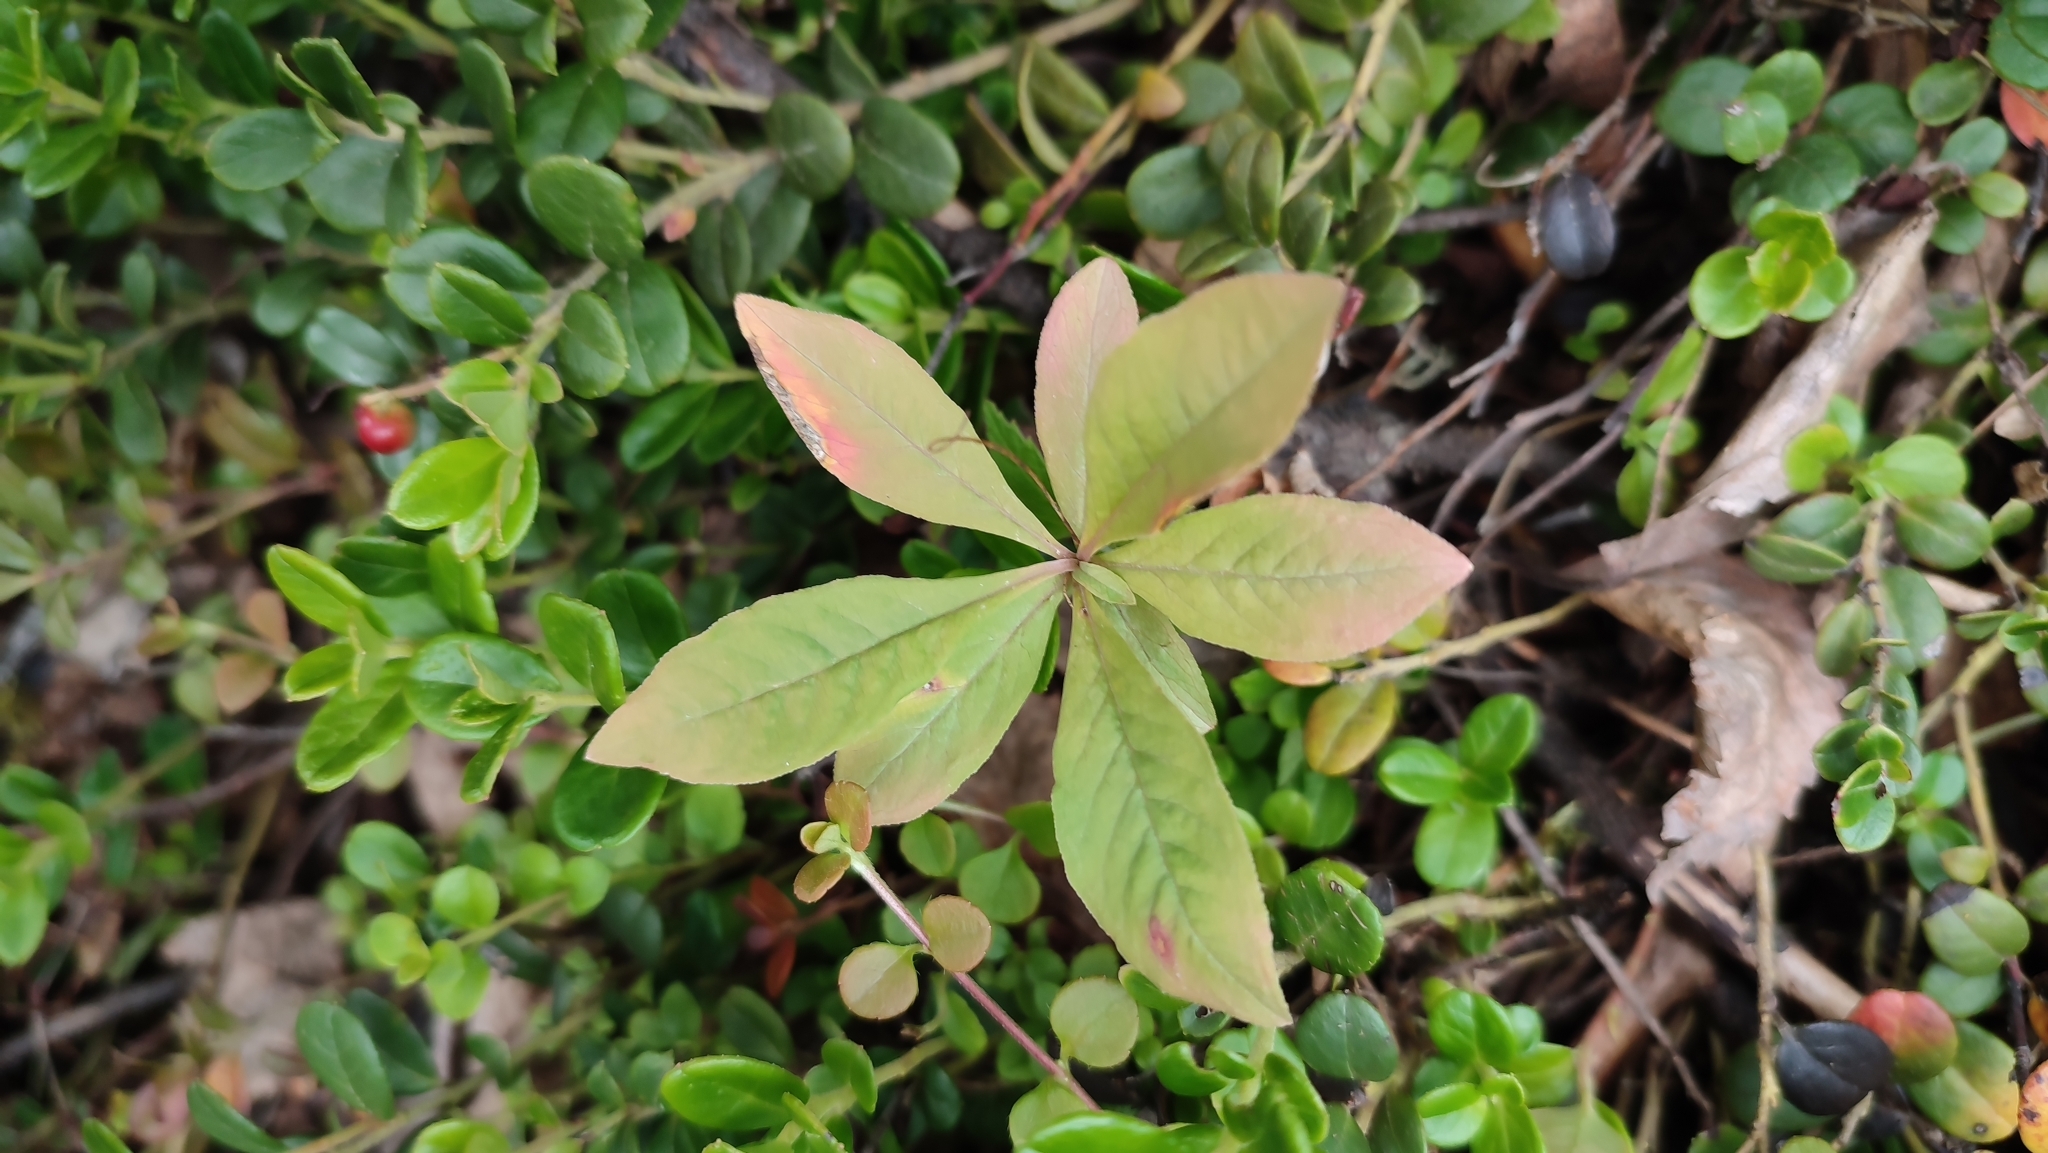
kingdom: Plantae
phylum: Tracheophyta
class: Magnoliopsida
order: Ericales
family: Primulaceae
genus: Lysimachia
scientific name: Lysimachia europaea
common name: Arctic starflower
